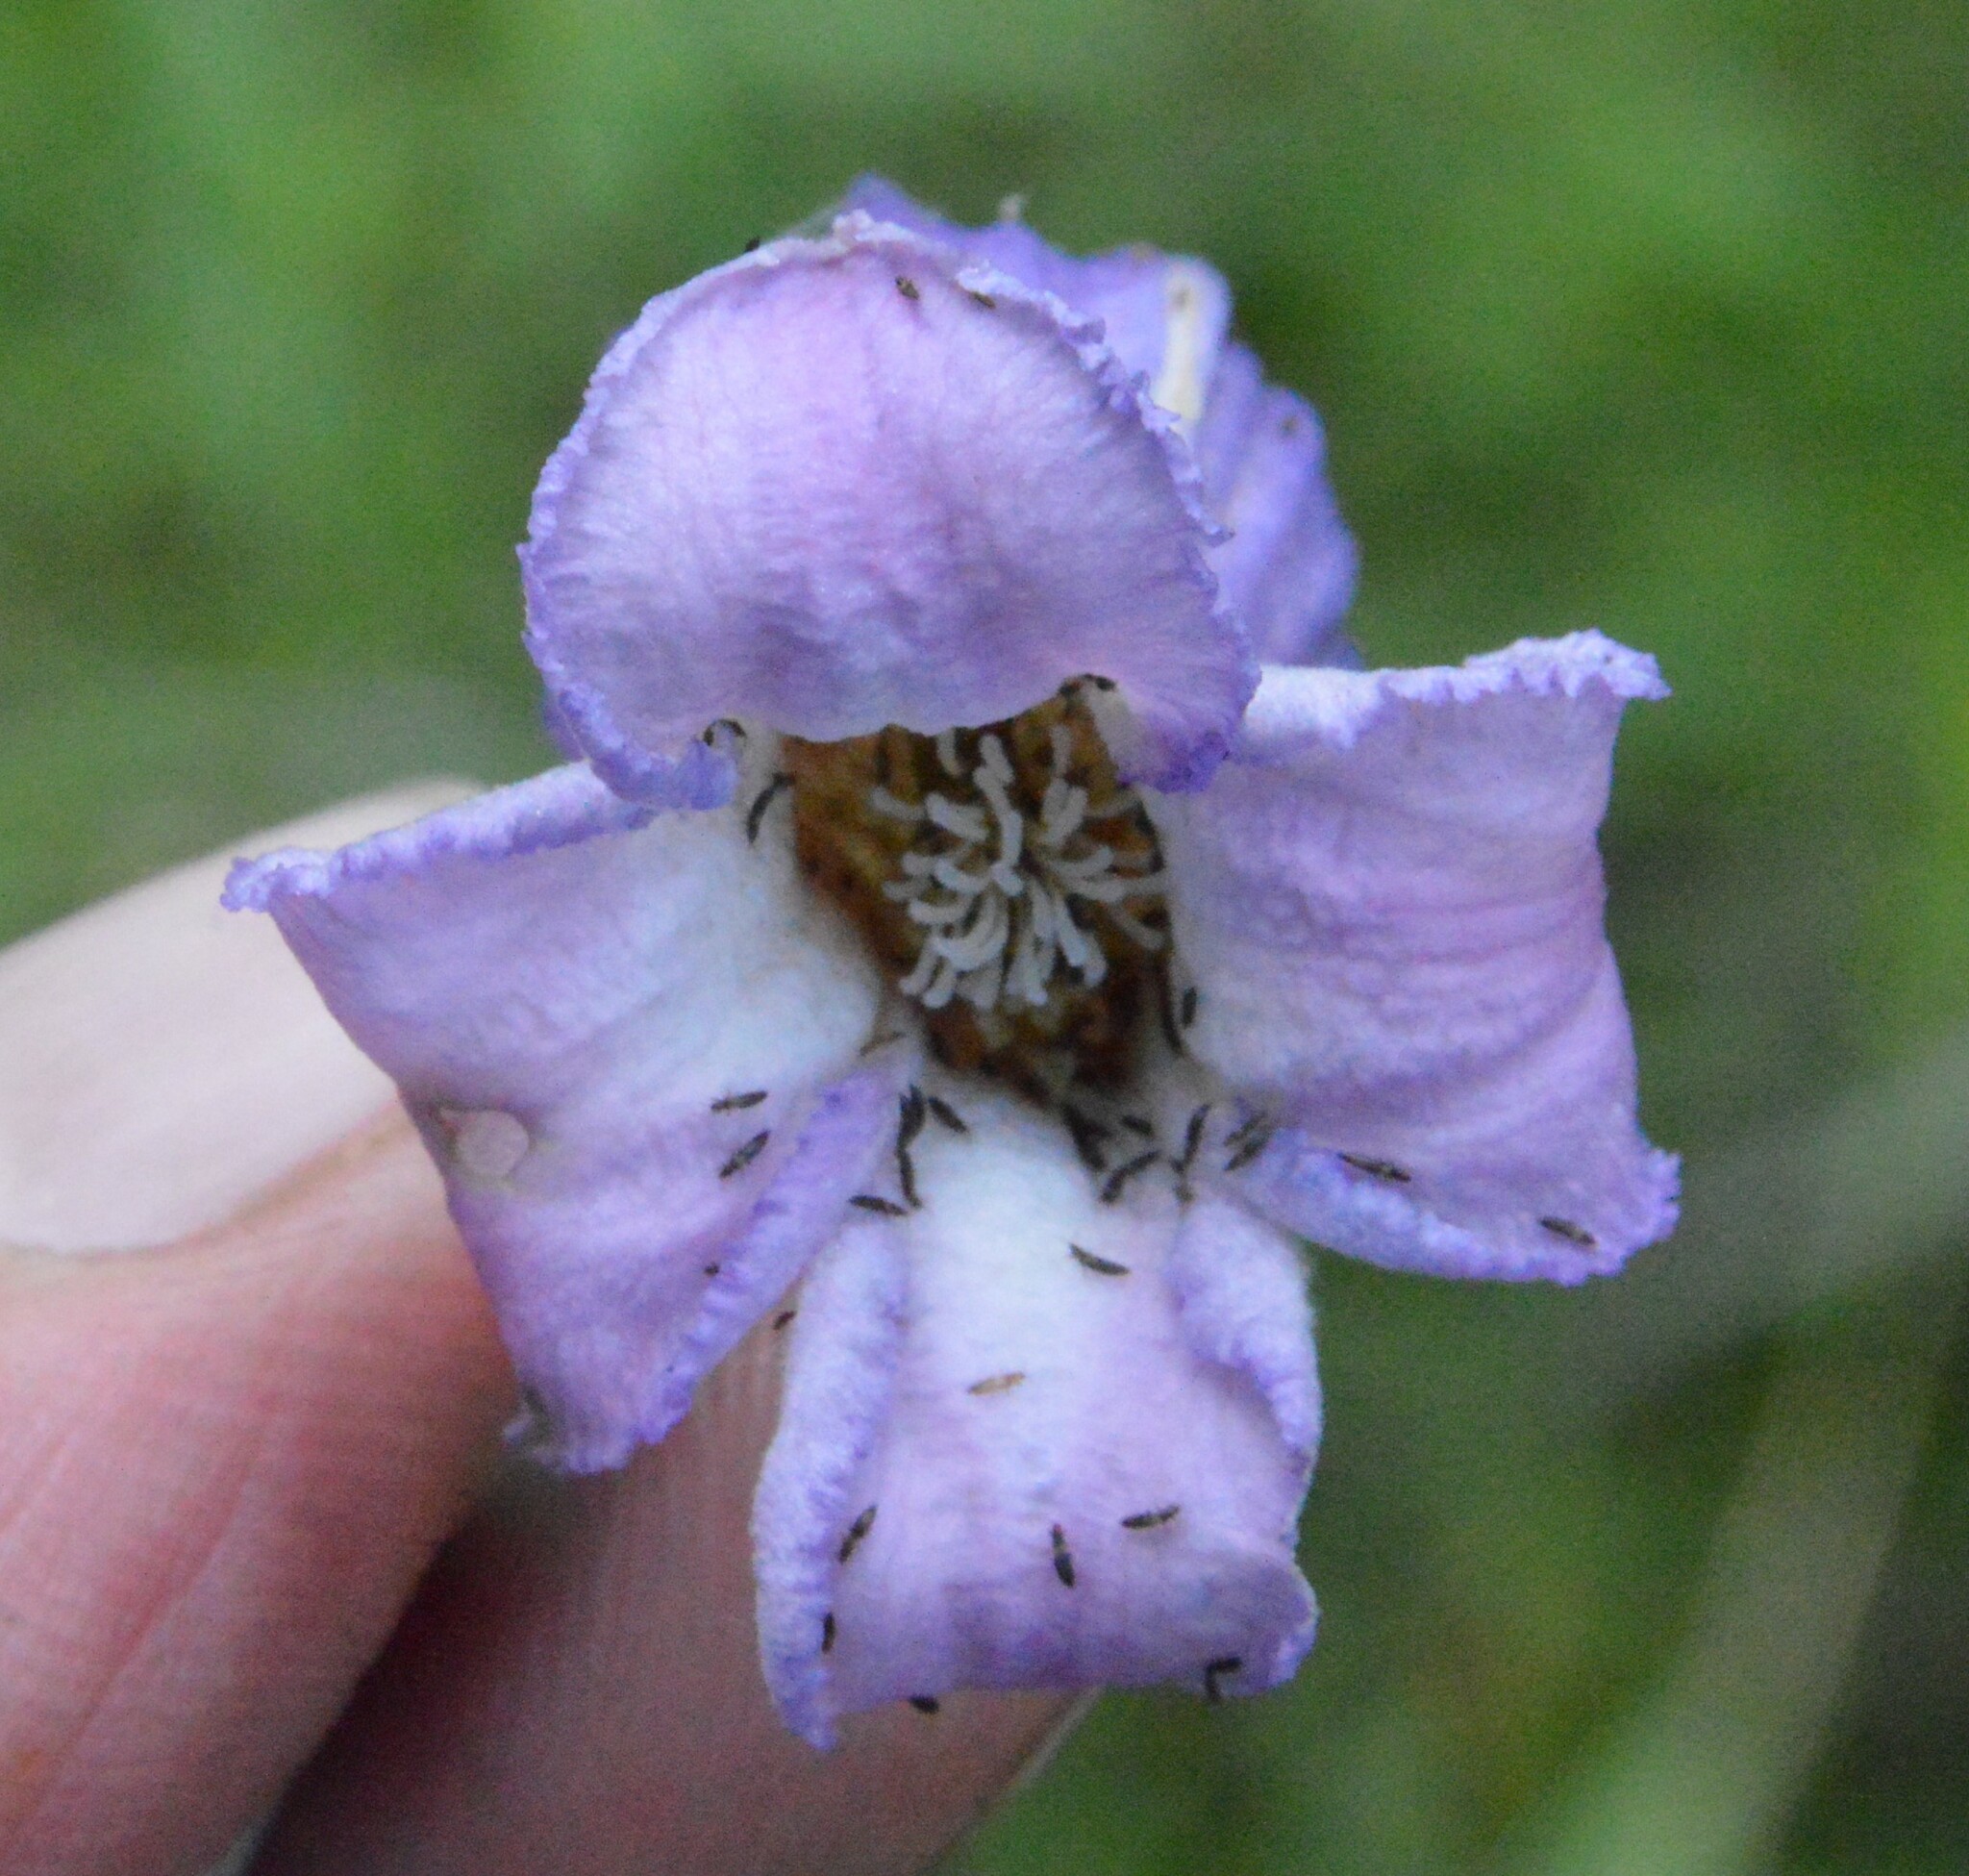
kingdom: Plantae
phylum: Tracheophyta
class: Magnoliopsida
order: Ranunculales
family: Ranunculaceae
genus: Clematis
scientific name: Clematis crispa
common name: Curly clematis
